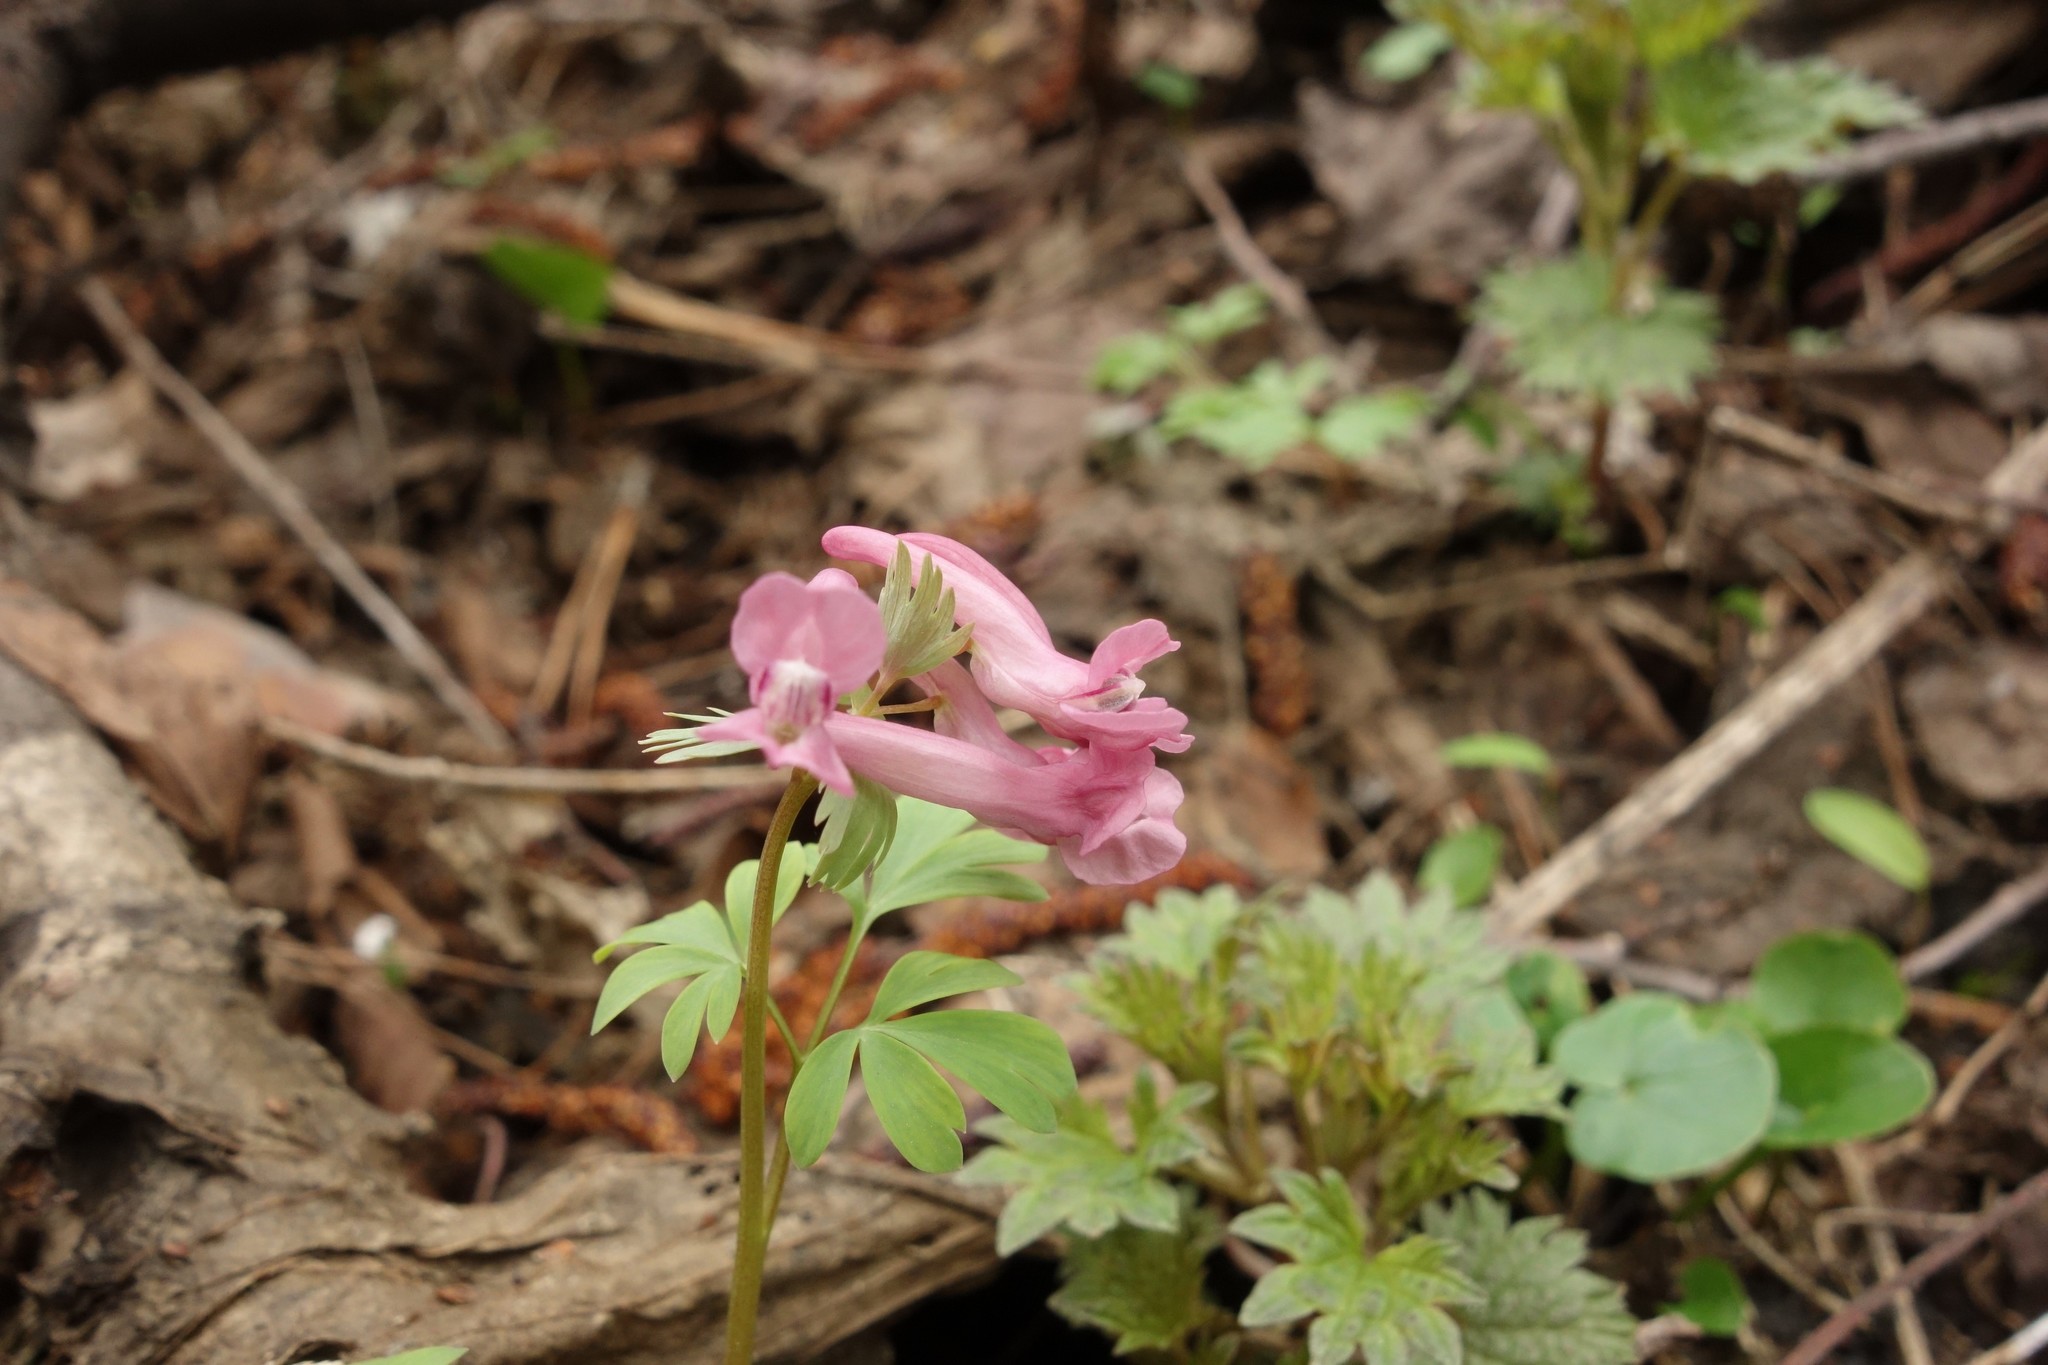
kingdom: Plantae
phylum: Tracheophyta
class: Magnoliopsida
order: Ranunculales
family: Papaveraceae
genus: Corydalis
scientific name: Corydalis solida
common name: Bird-in-a-bush
